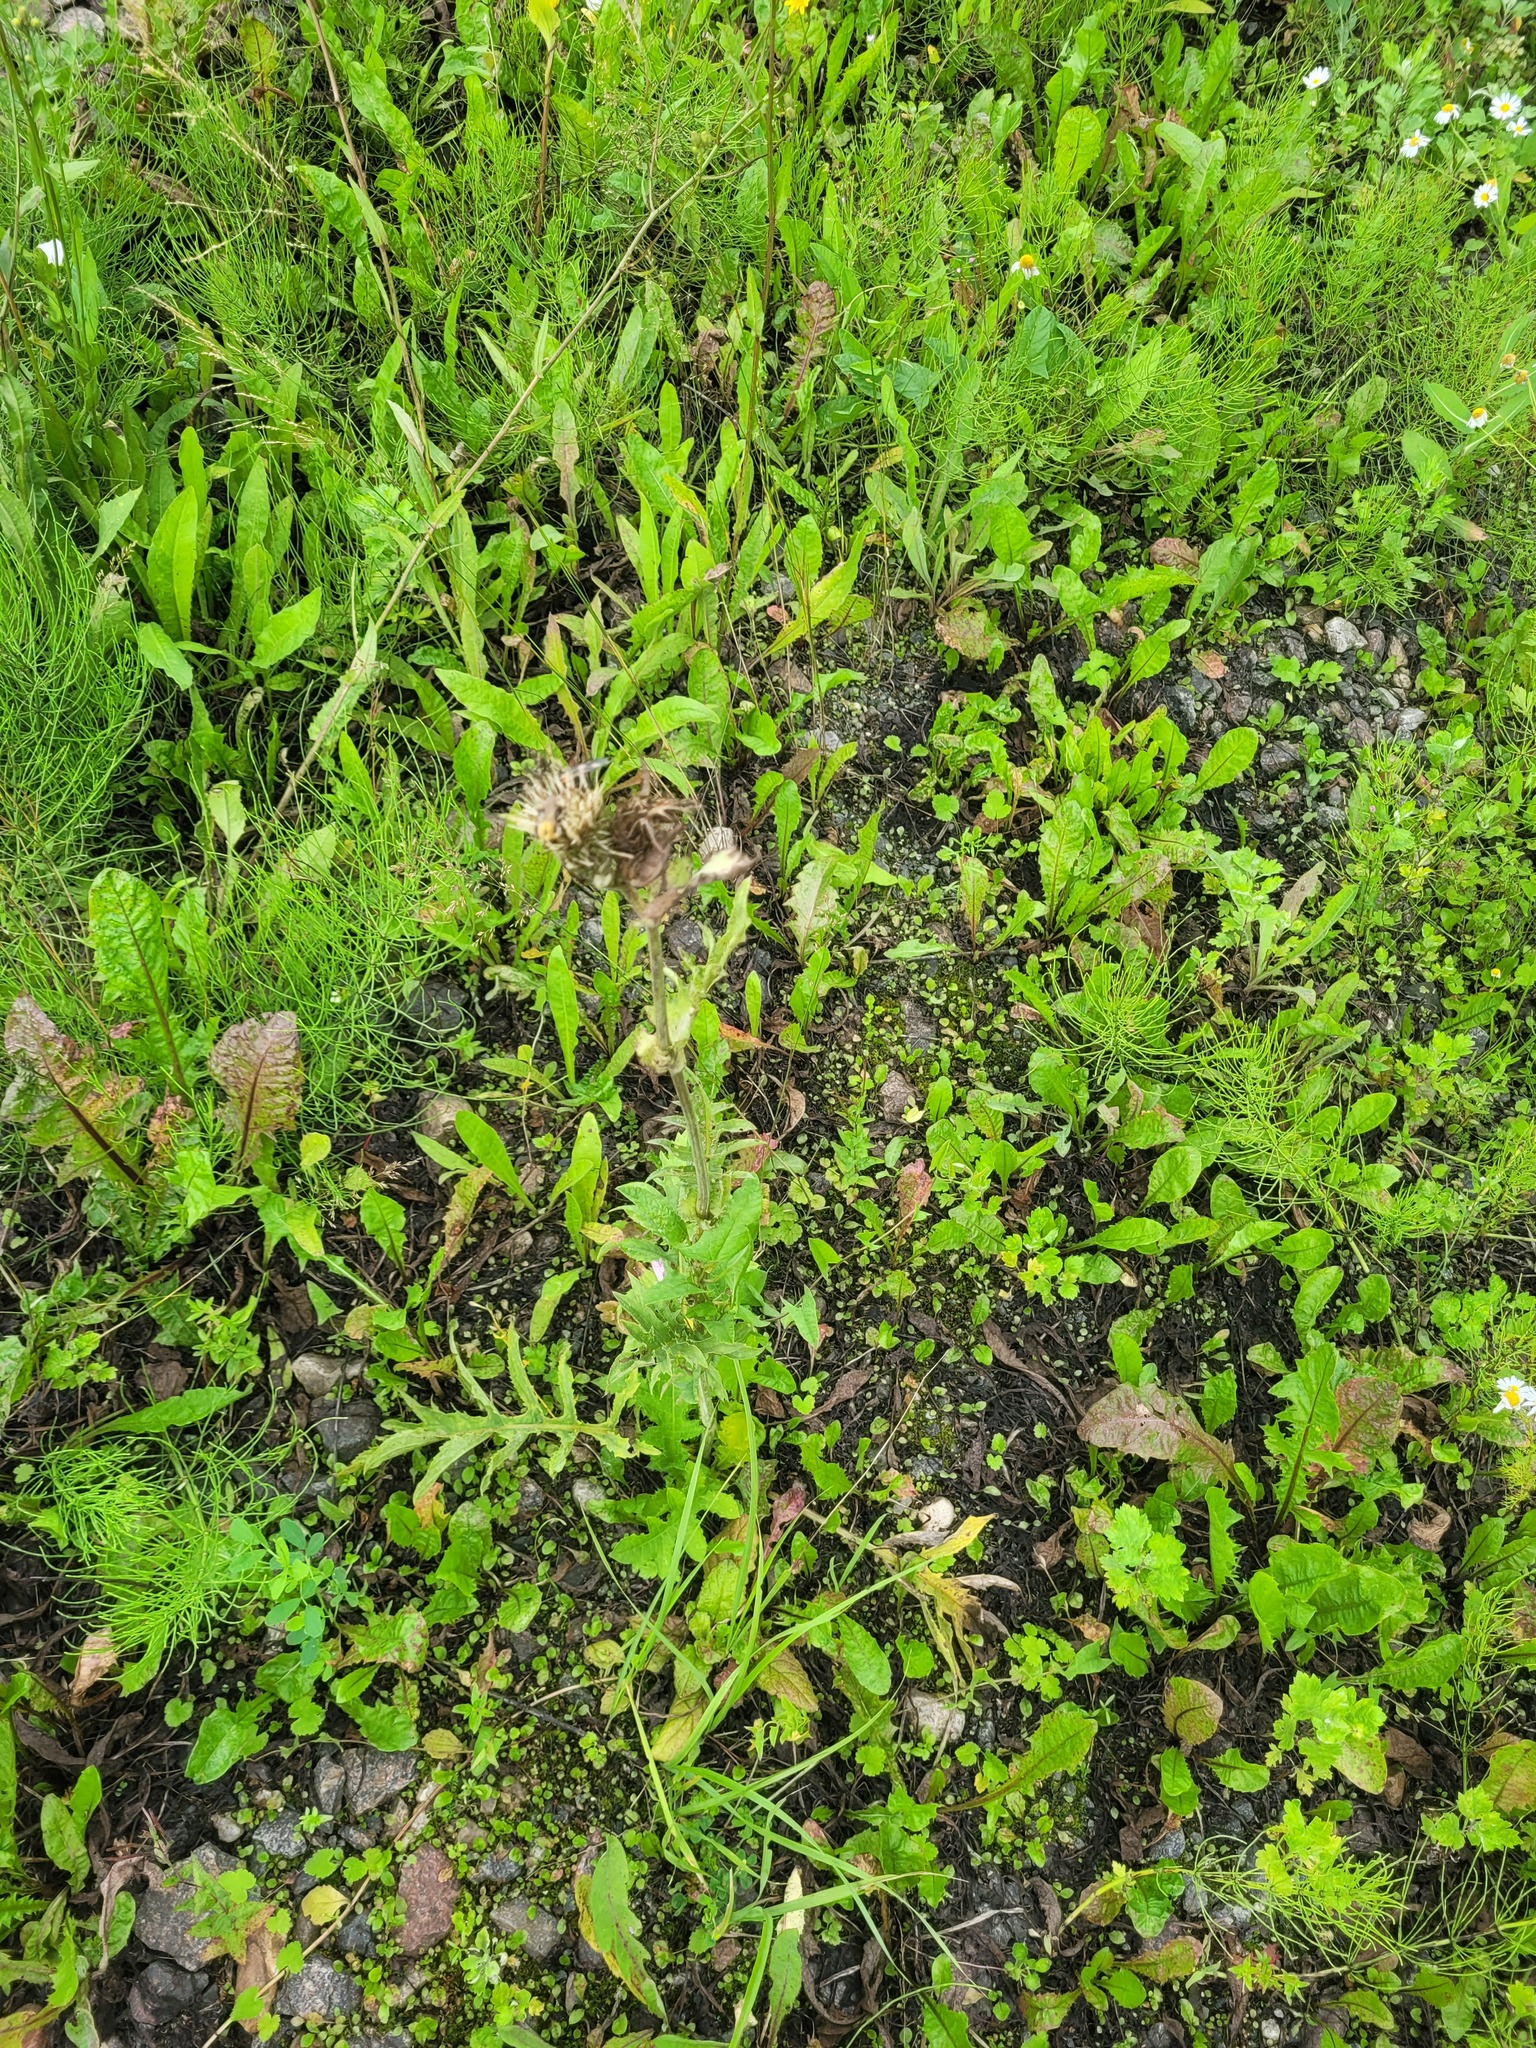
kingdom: Plantae
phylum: Tracheophyta
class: Magnoliopsida
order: Asterales
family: Asteraceae
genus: Cirsium
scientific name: Cirsium oleraceum
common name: Cabbage thistle
